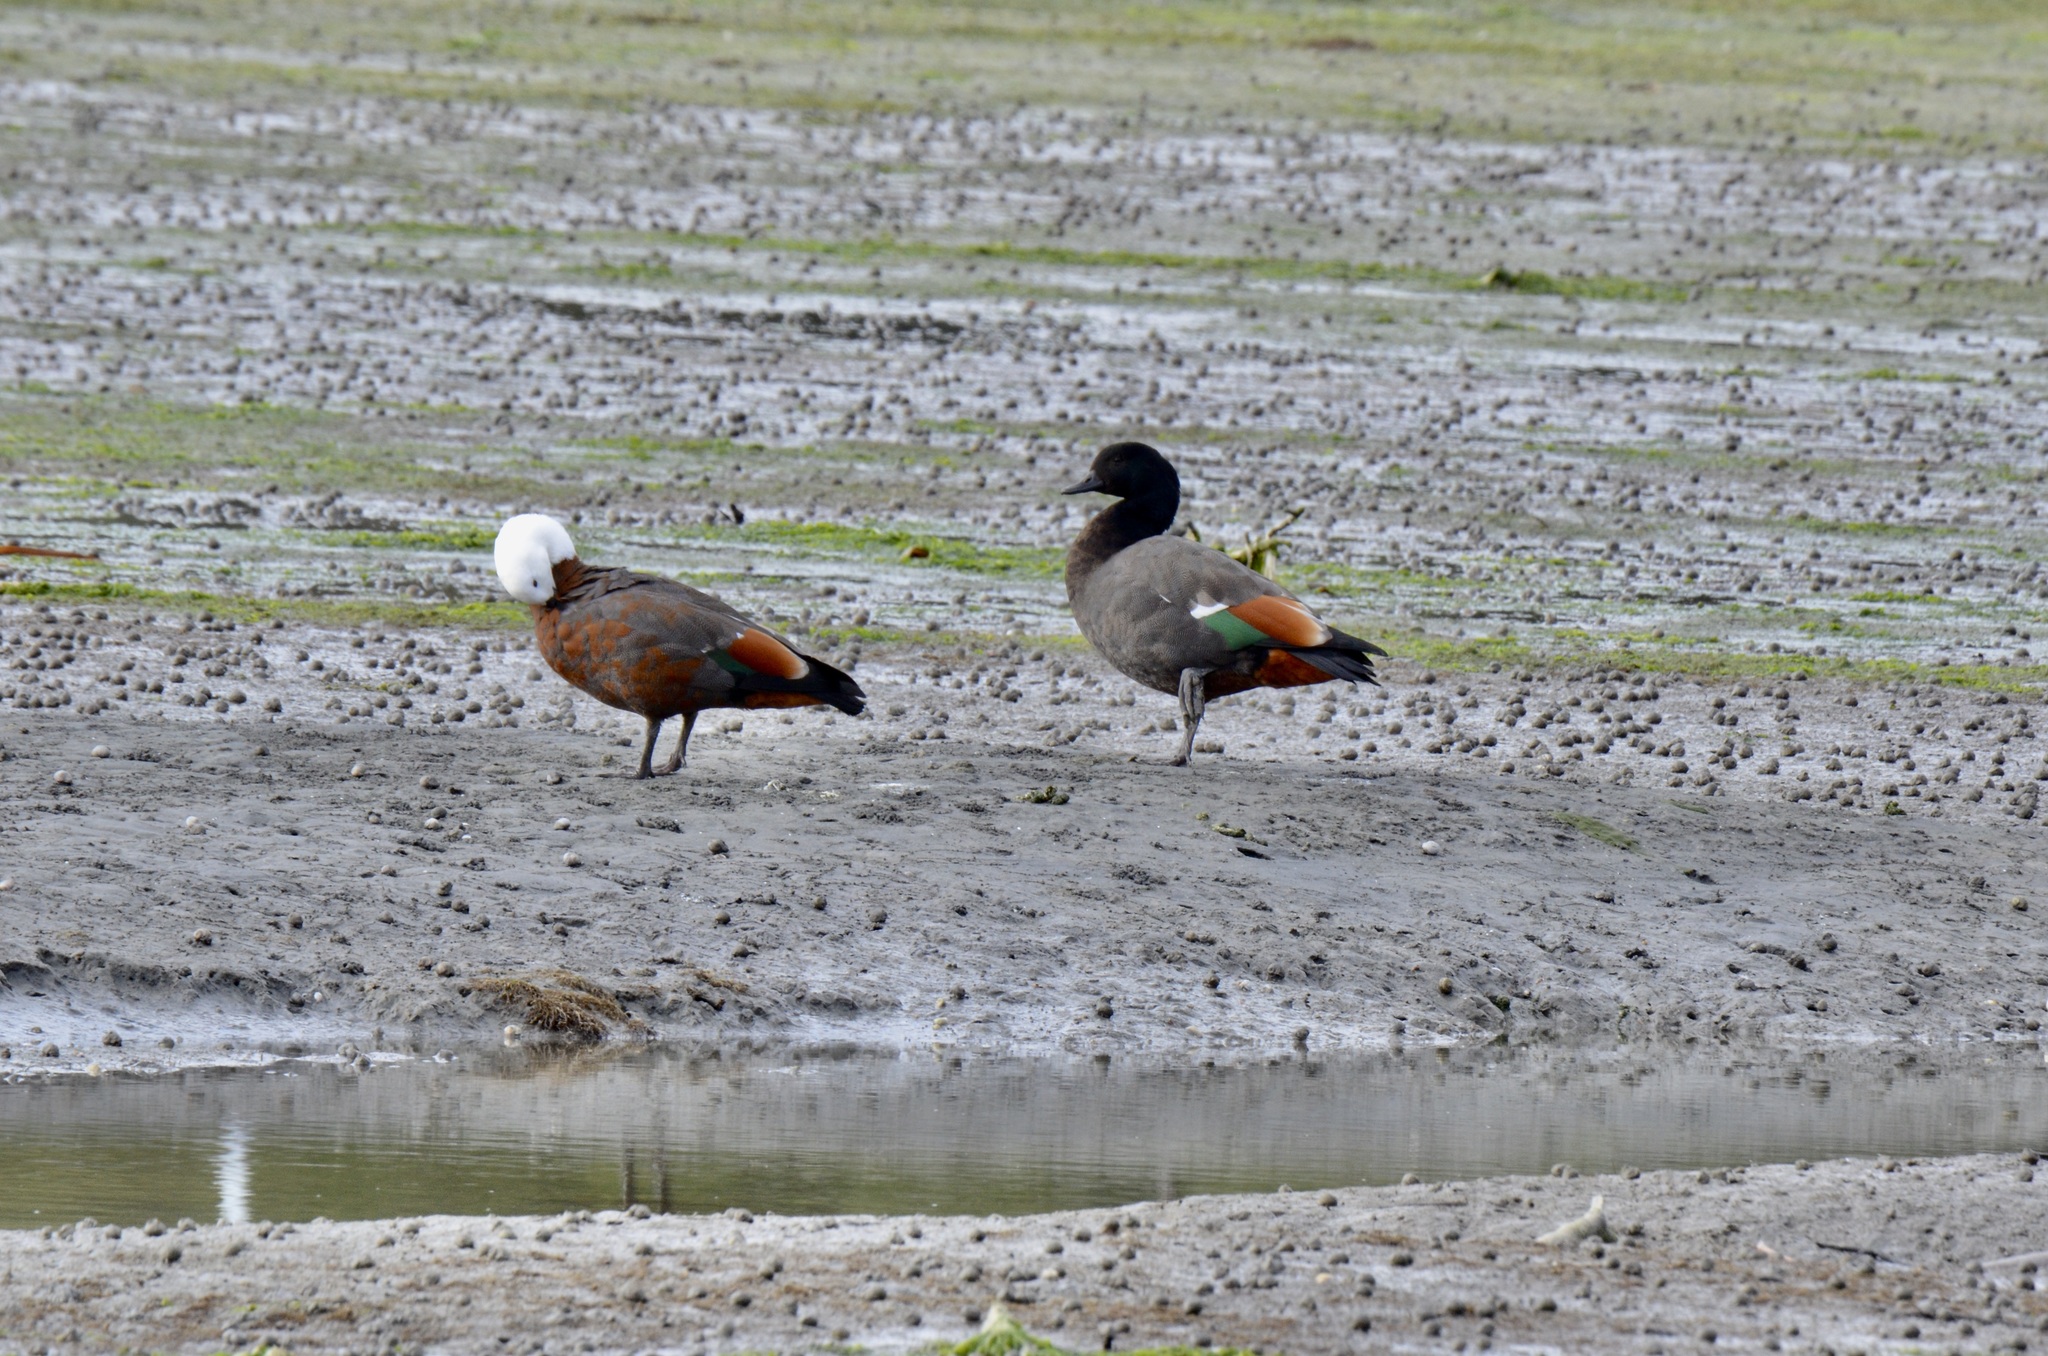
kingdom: Animalia
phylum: Chordata
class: Aves
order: Anseriformes
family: Anatidae
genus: Tadorna
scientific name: Tadorna variegata
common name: Paradise shelduck
